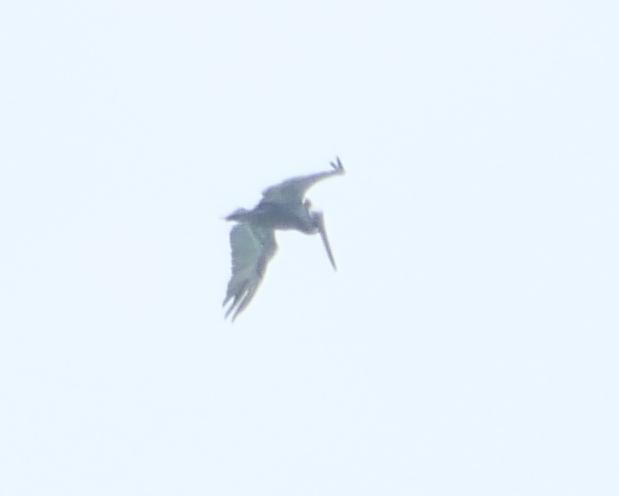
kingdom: Animalia
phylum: Chordata
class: Aves
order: Pelecaniformes
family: Pelecanidae
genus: Pelecanus
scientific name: Pelecanus occidentalis
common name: Brown pelican
